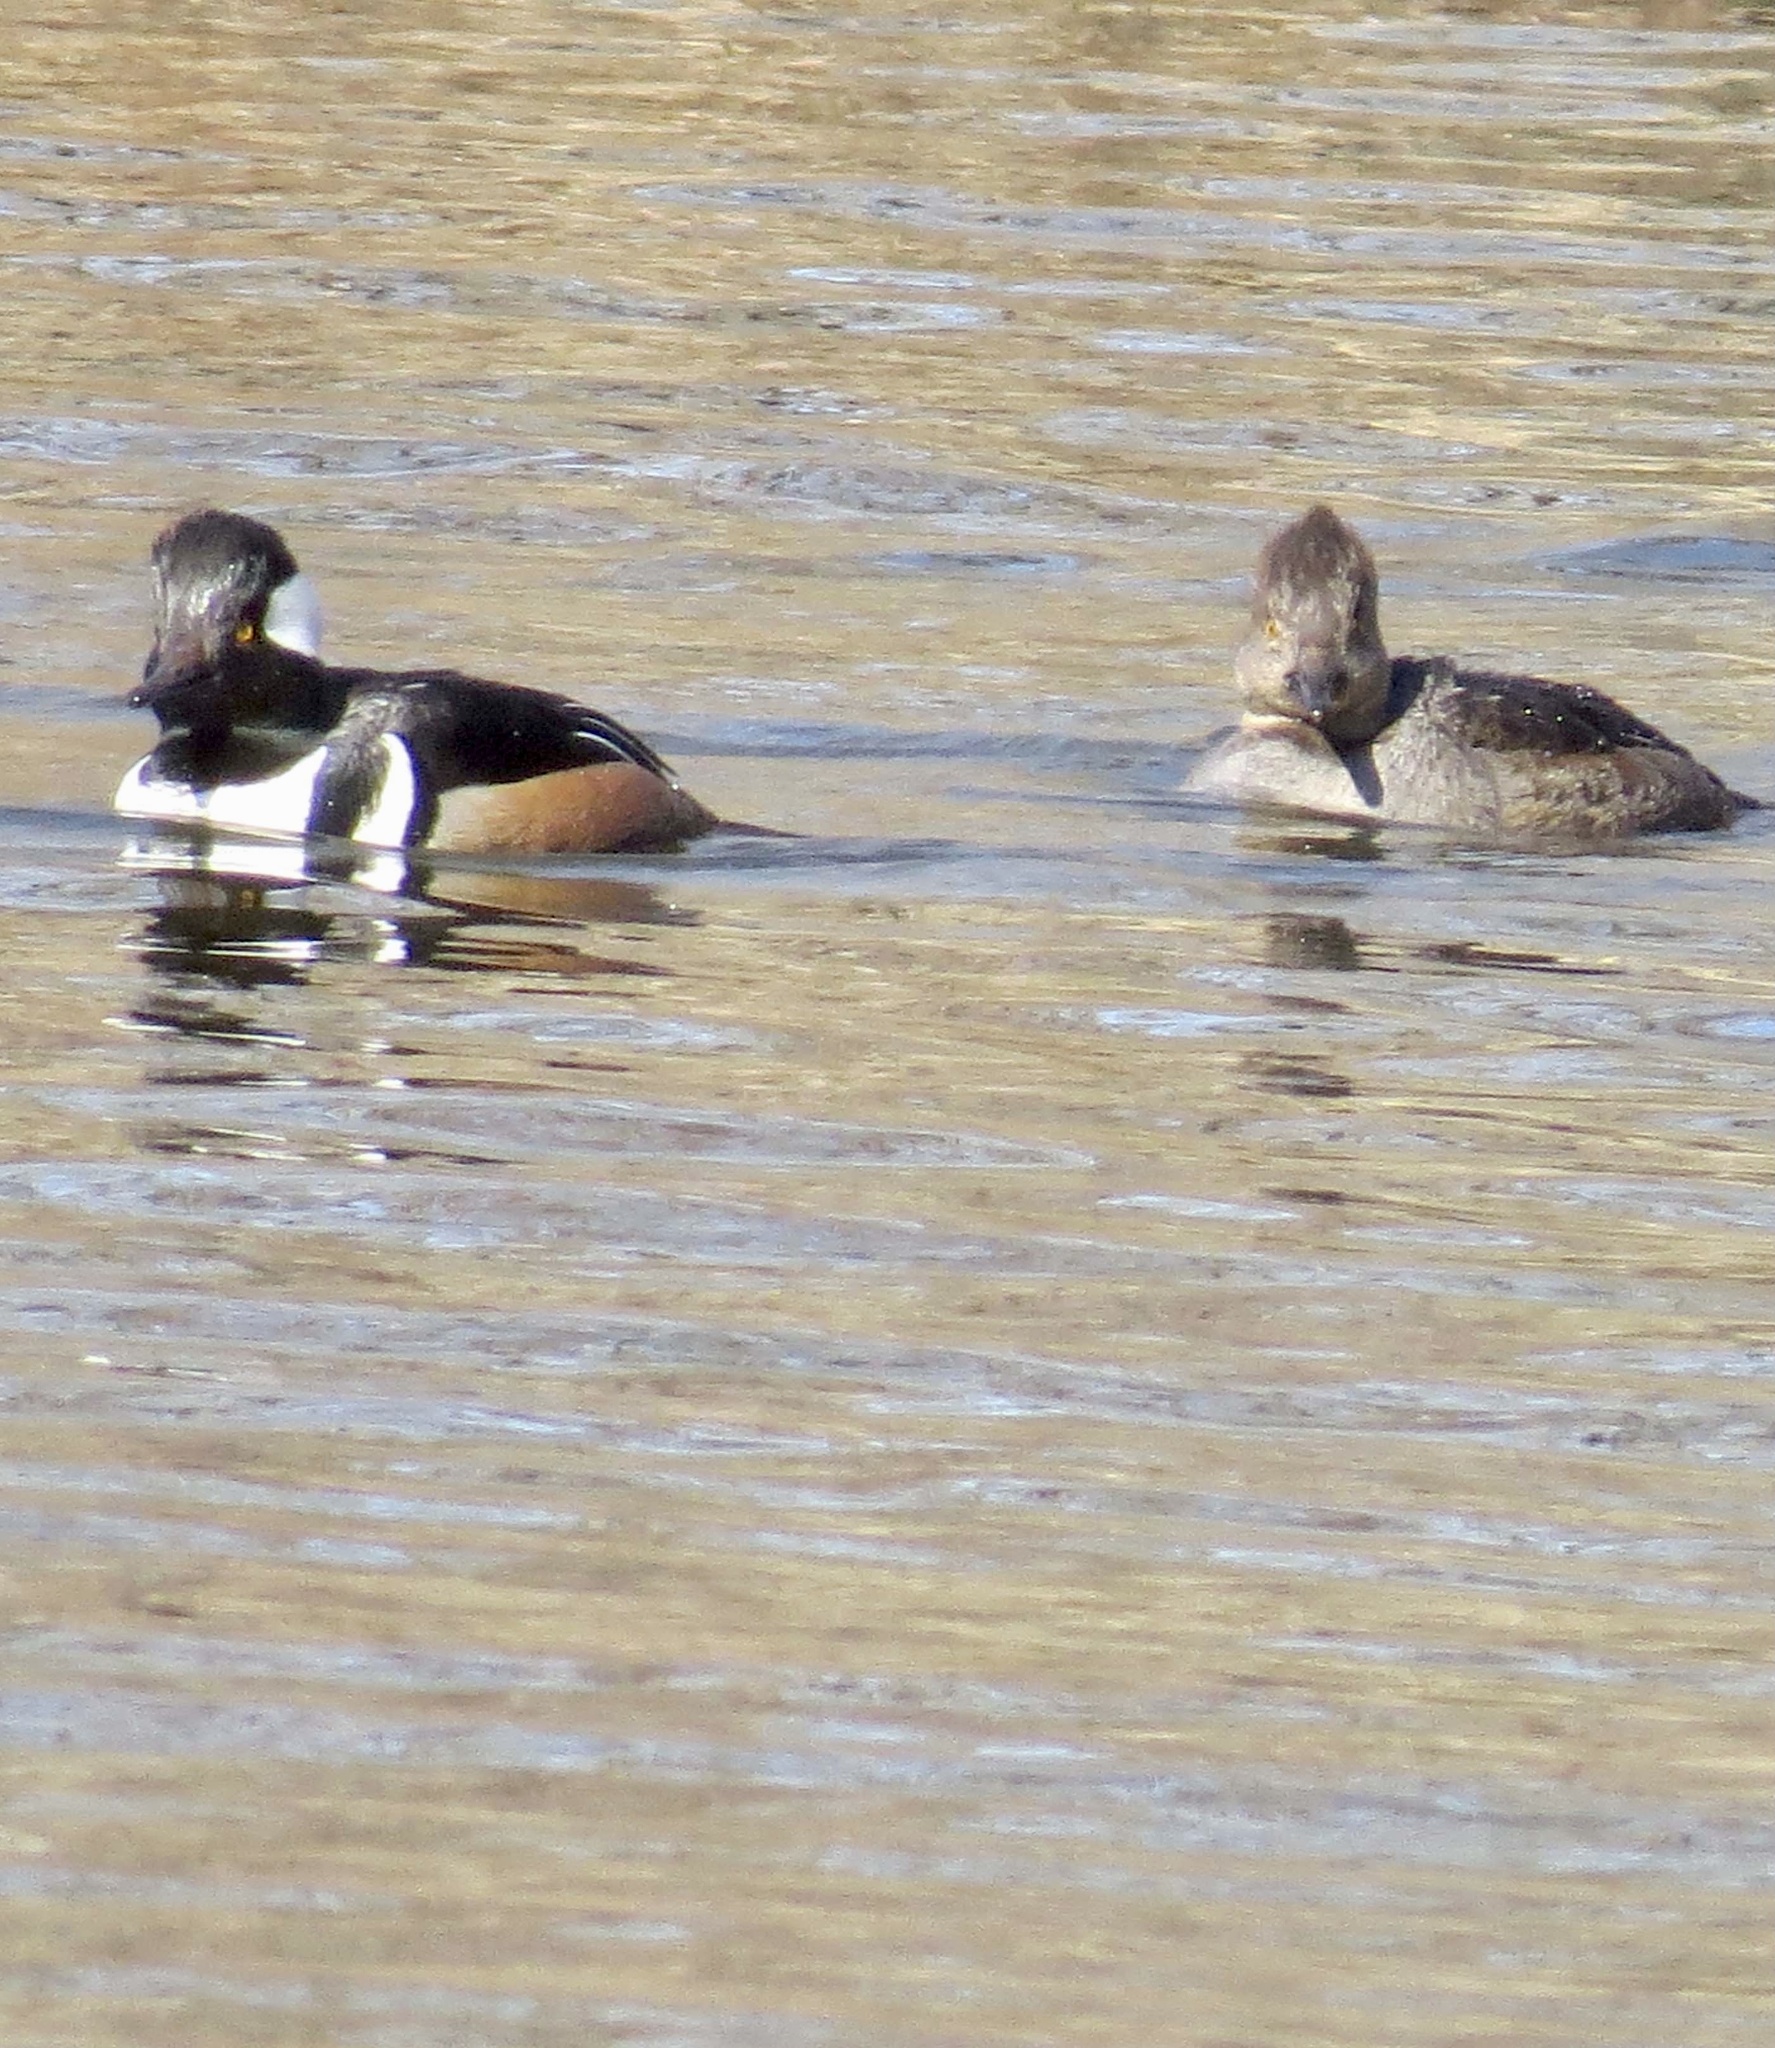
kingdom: Animalia
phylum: Chordata
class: Aves
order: Anseriformes
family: Anatidae
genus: Lophodytes
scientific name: Lophodytes cucullatus
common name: Hooded merganser
